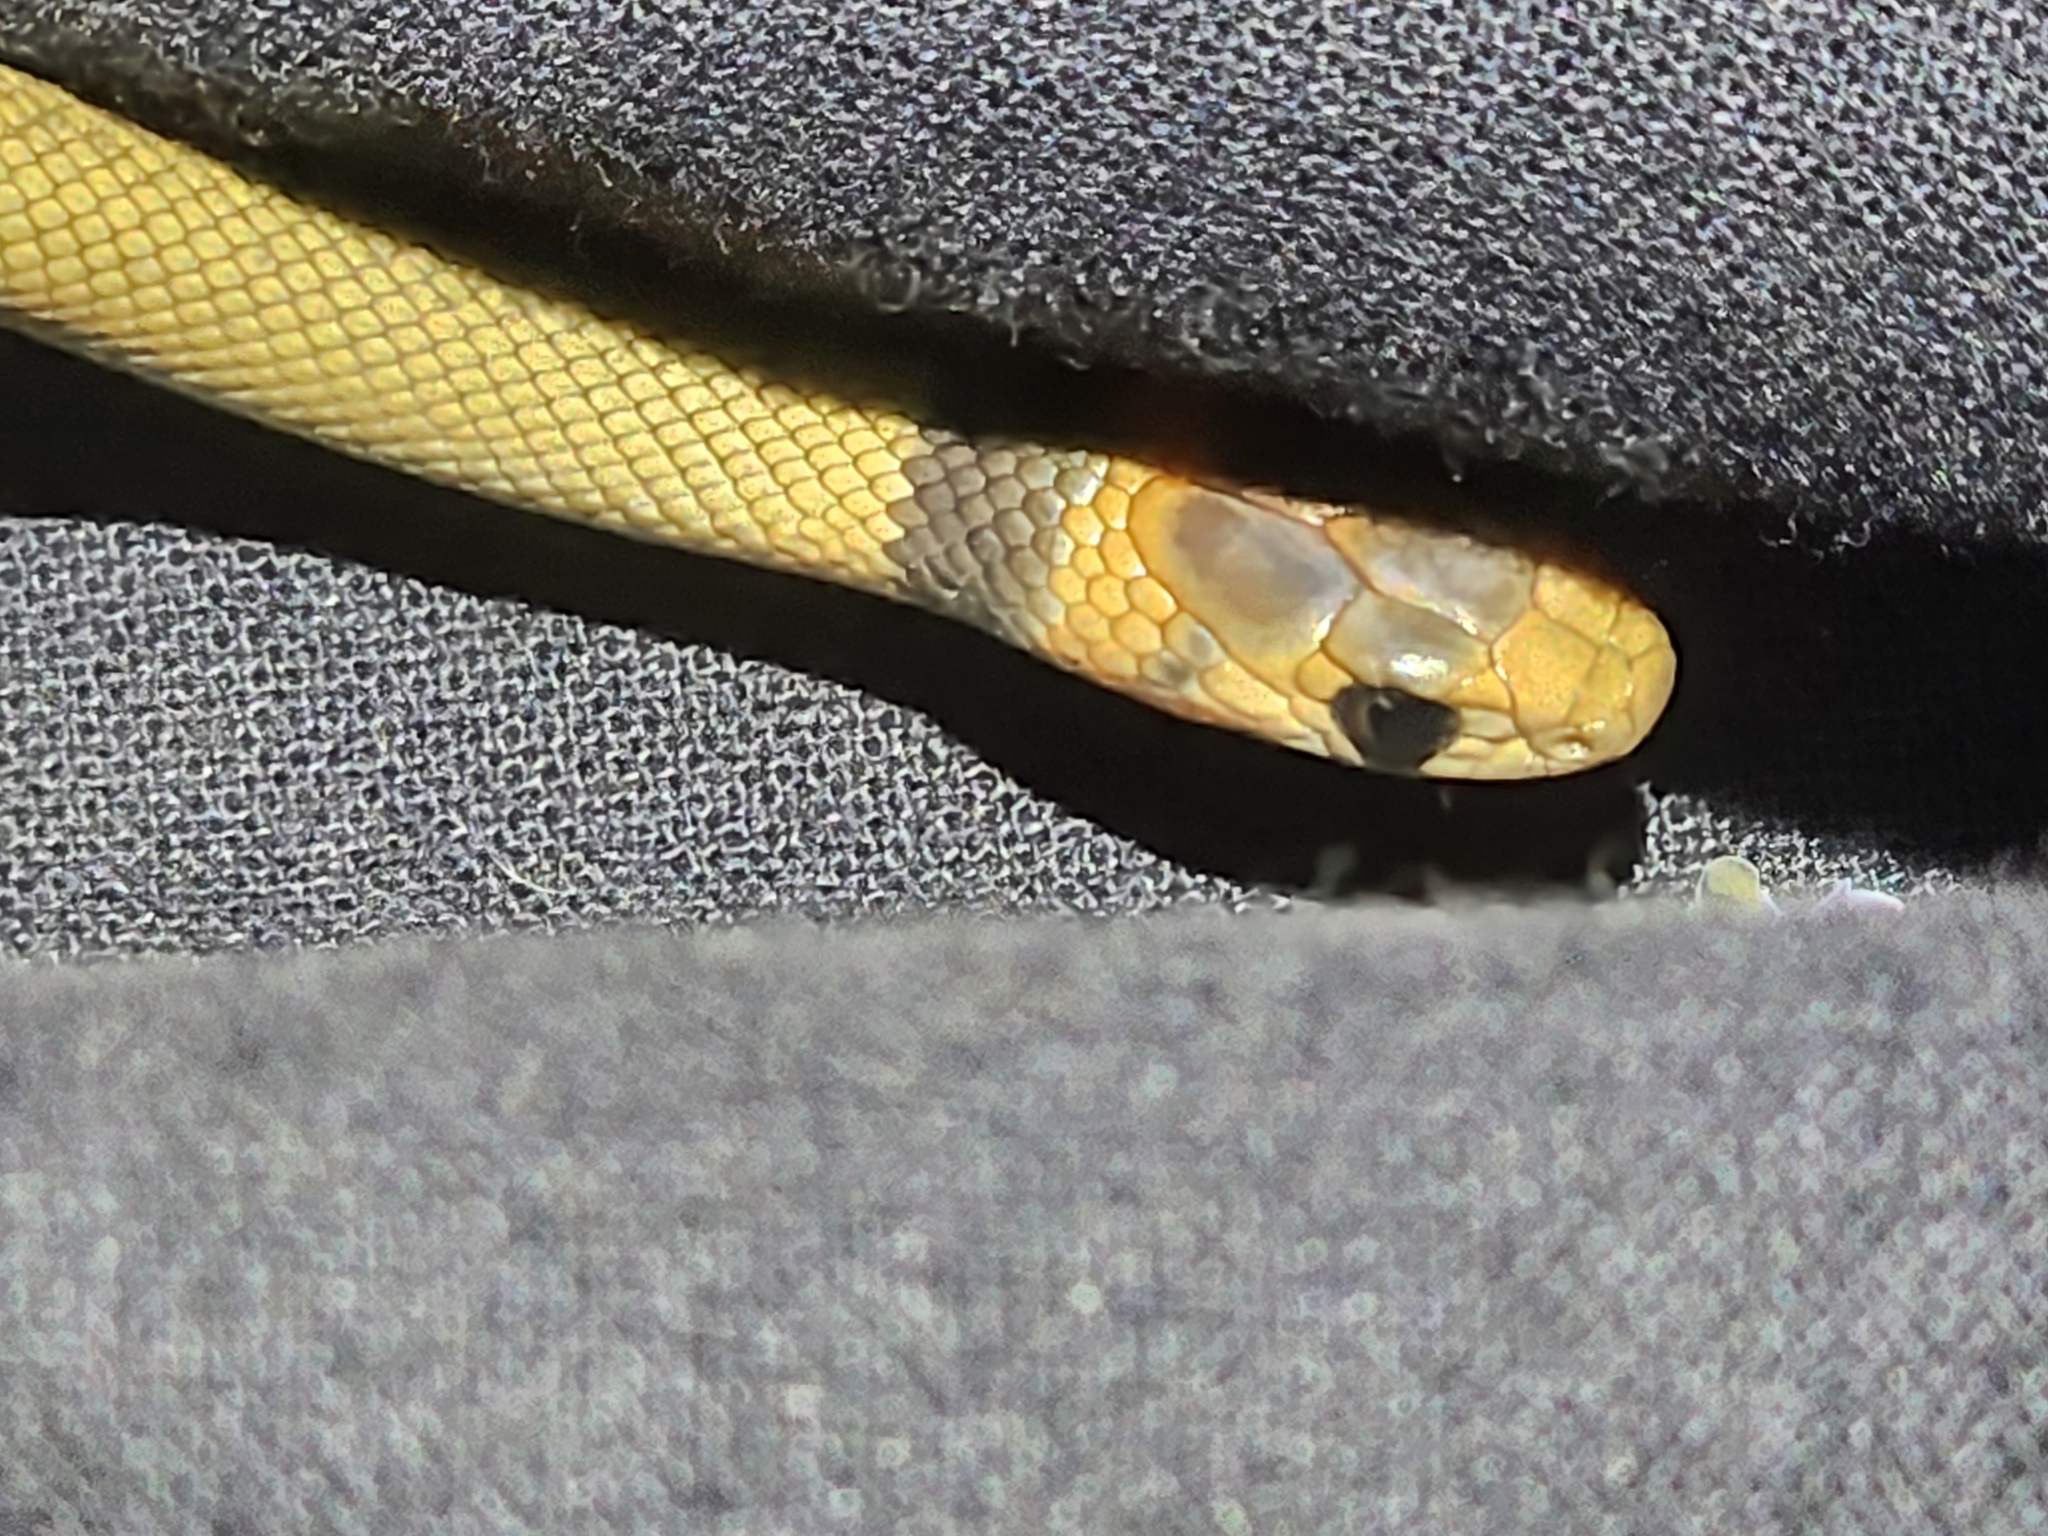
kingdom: Animalia
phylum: Chordata
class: Squamata
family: Elapidae
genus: Pseudonaja
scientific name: Pseudonaja textilis
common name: Eastern brown snake
